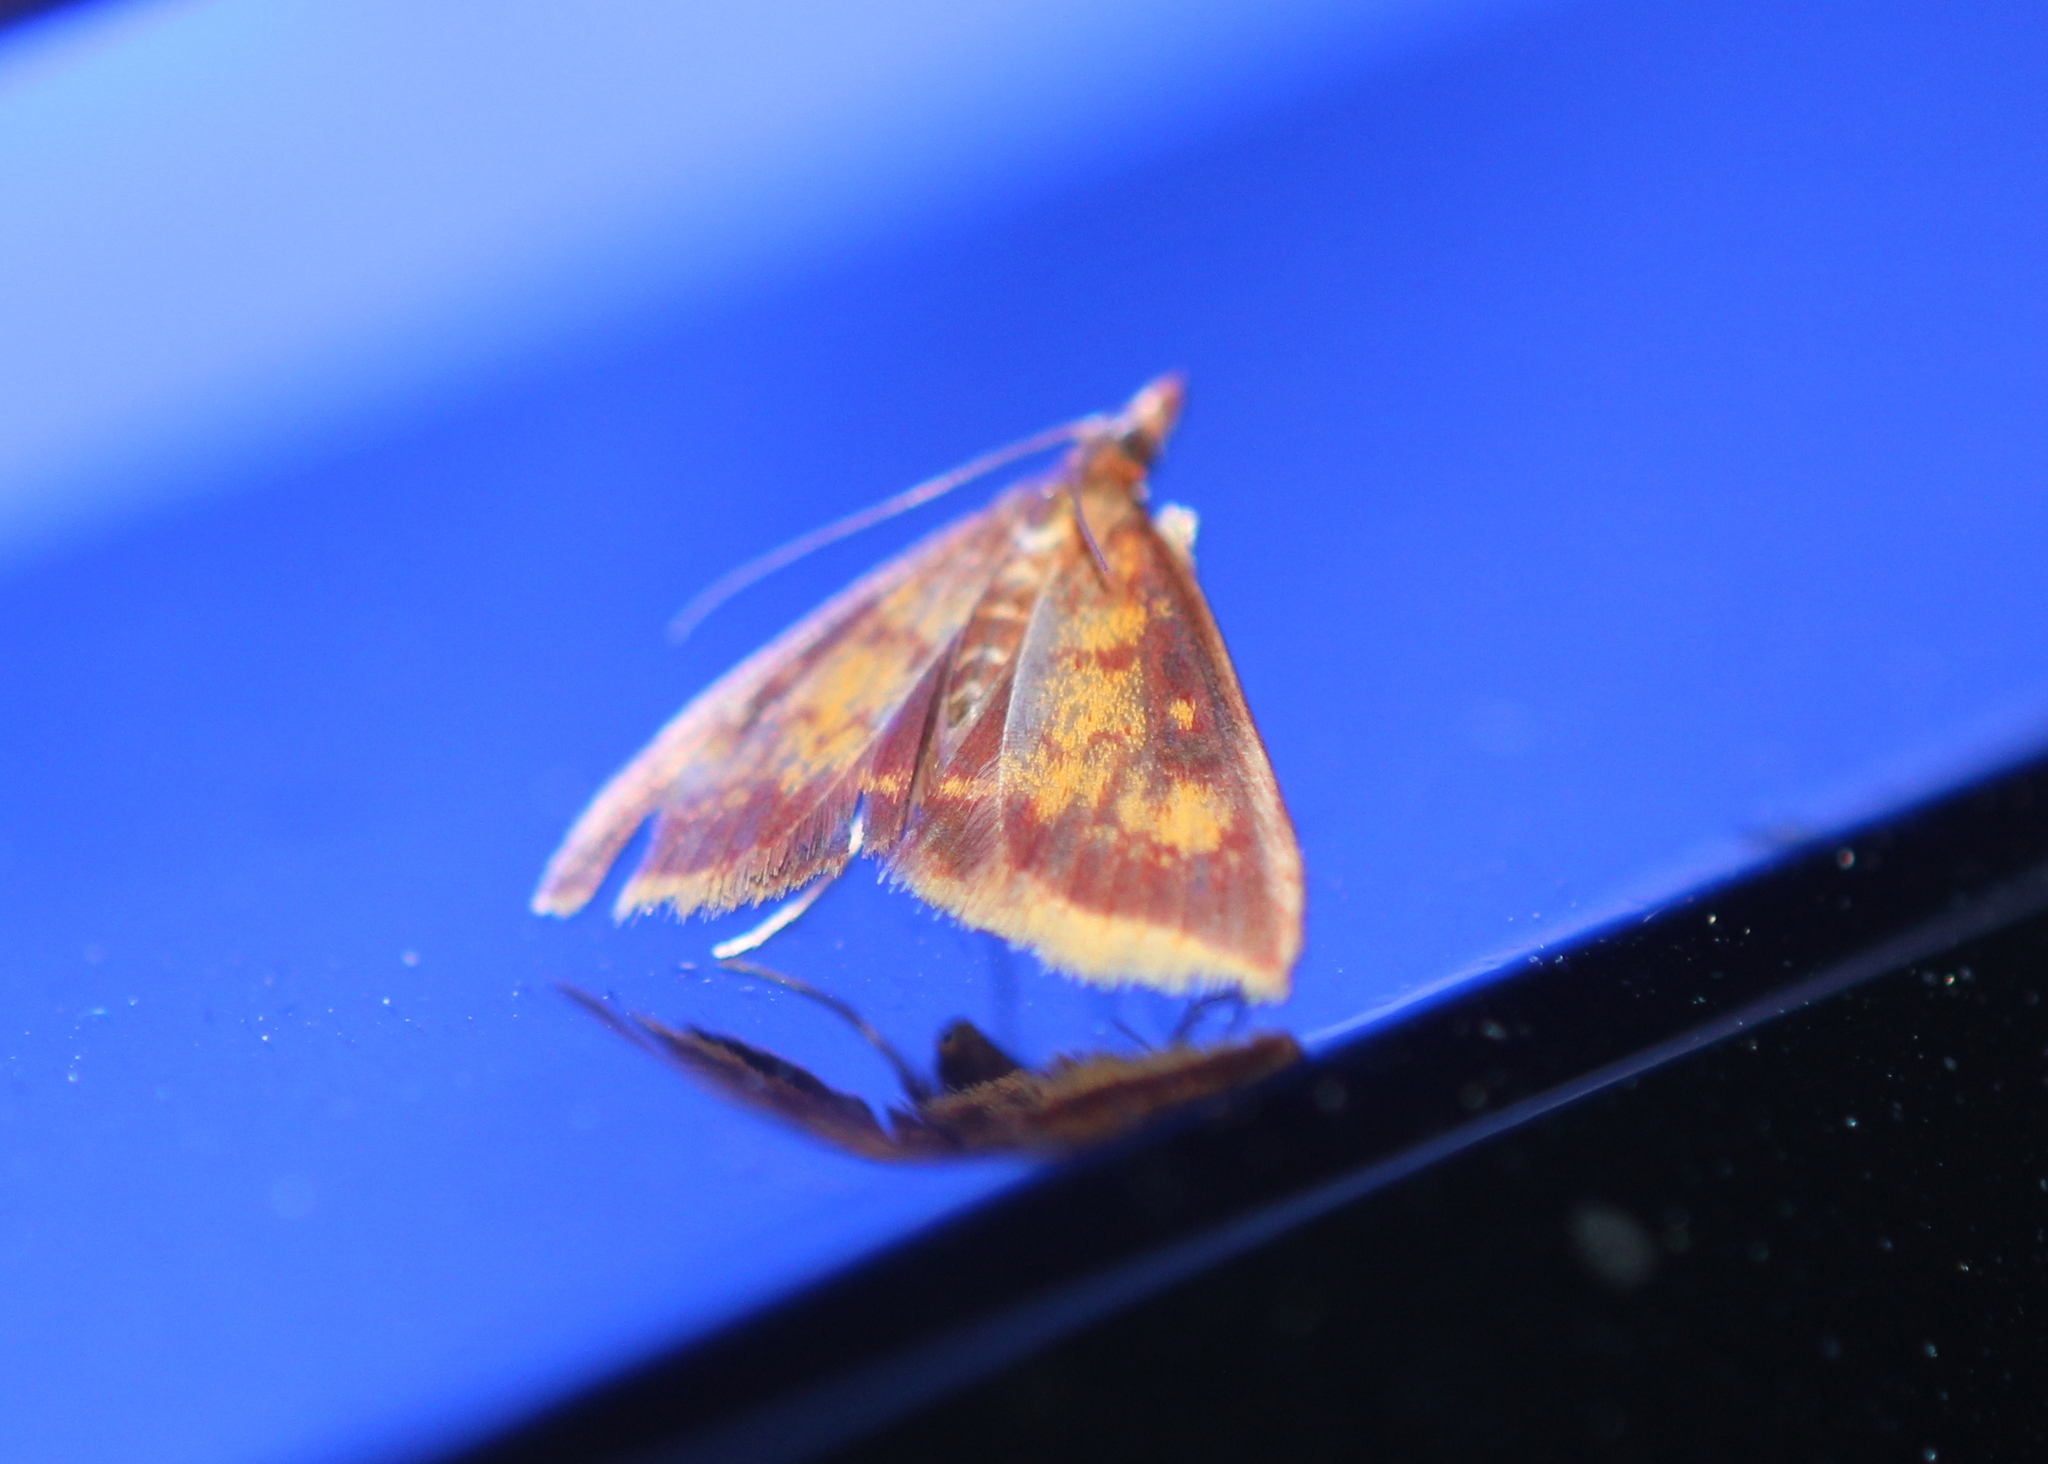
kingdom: Animalia
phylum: Arthropoda
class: Insecta
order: Lepidoptera
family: Crambidae
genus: Pyrausta
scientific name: Pyrausta acrionalis
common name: Mint-loving pyrausta moth
